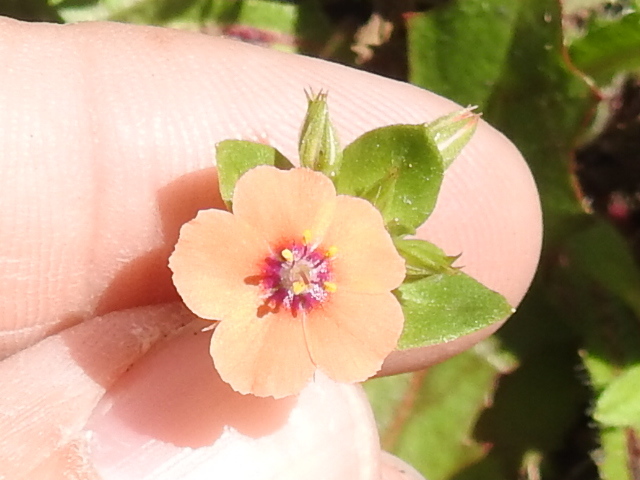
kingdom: Plantae
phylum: Tracheophyta
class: Magnoliopsida
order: Ericales
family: Primulaceae
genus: Lysimachia
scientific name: Lysimachia arvensis
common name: Scarlet pimpernel
